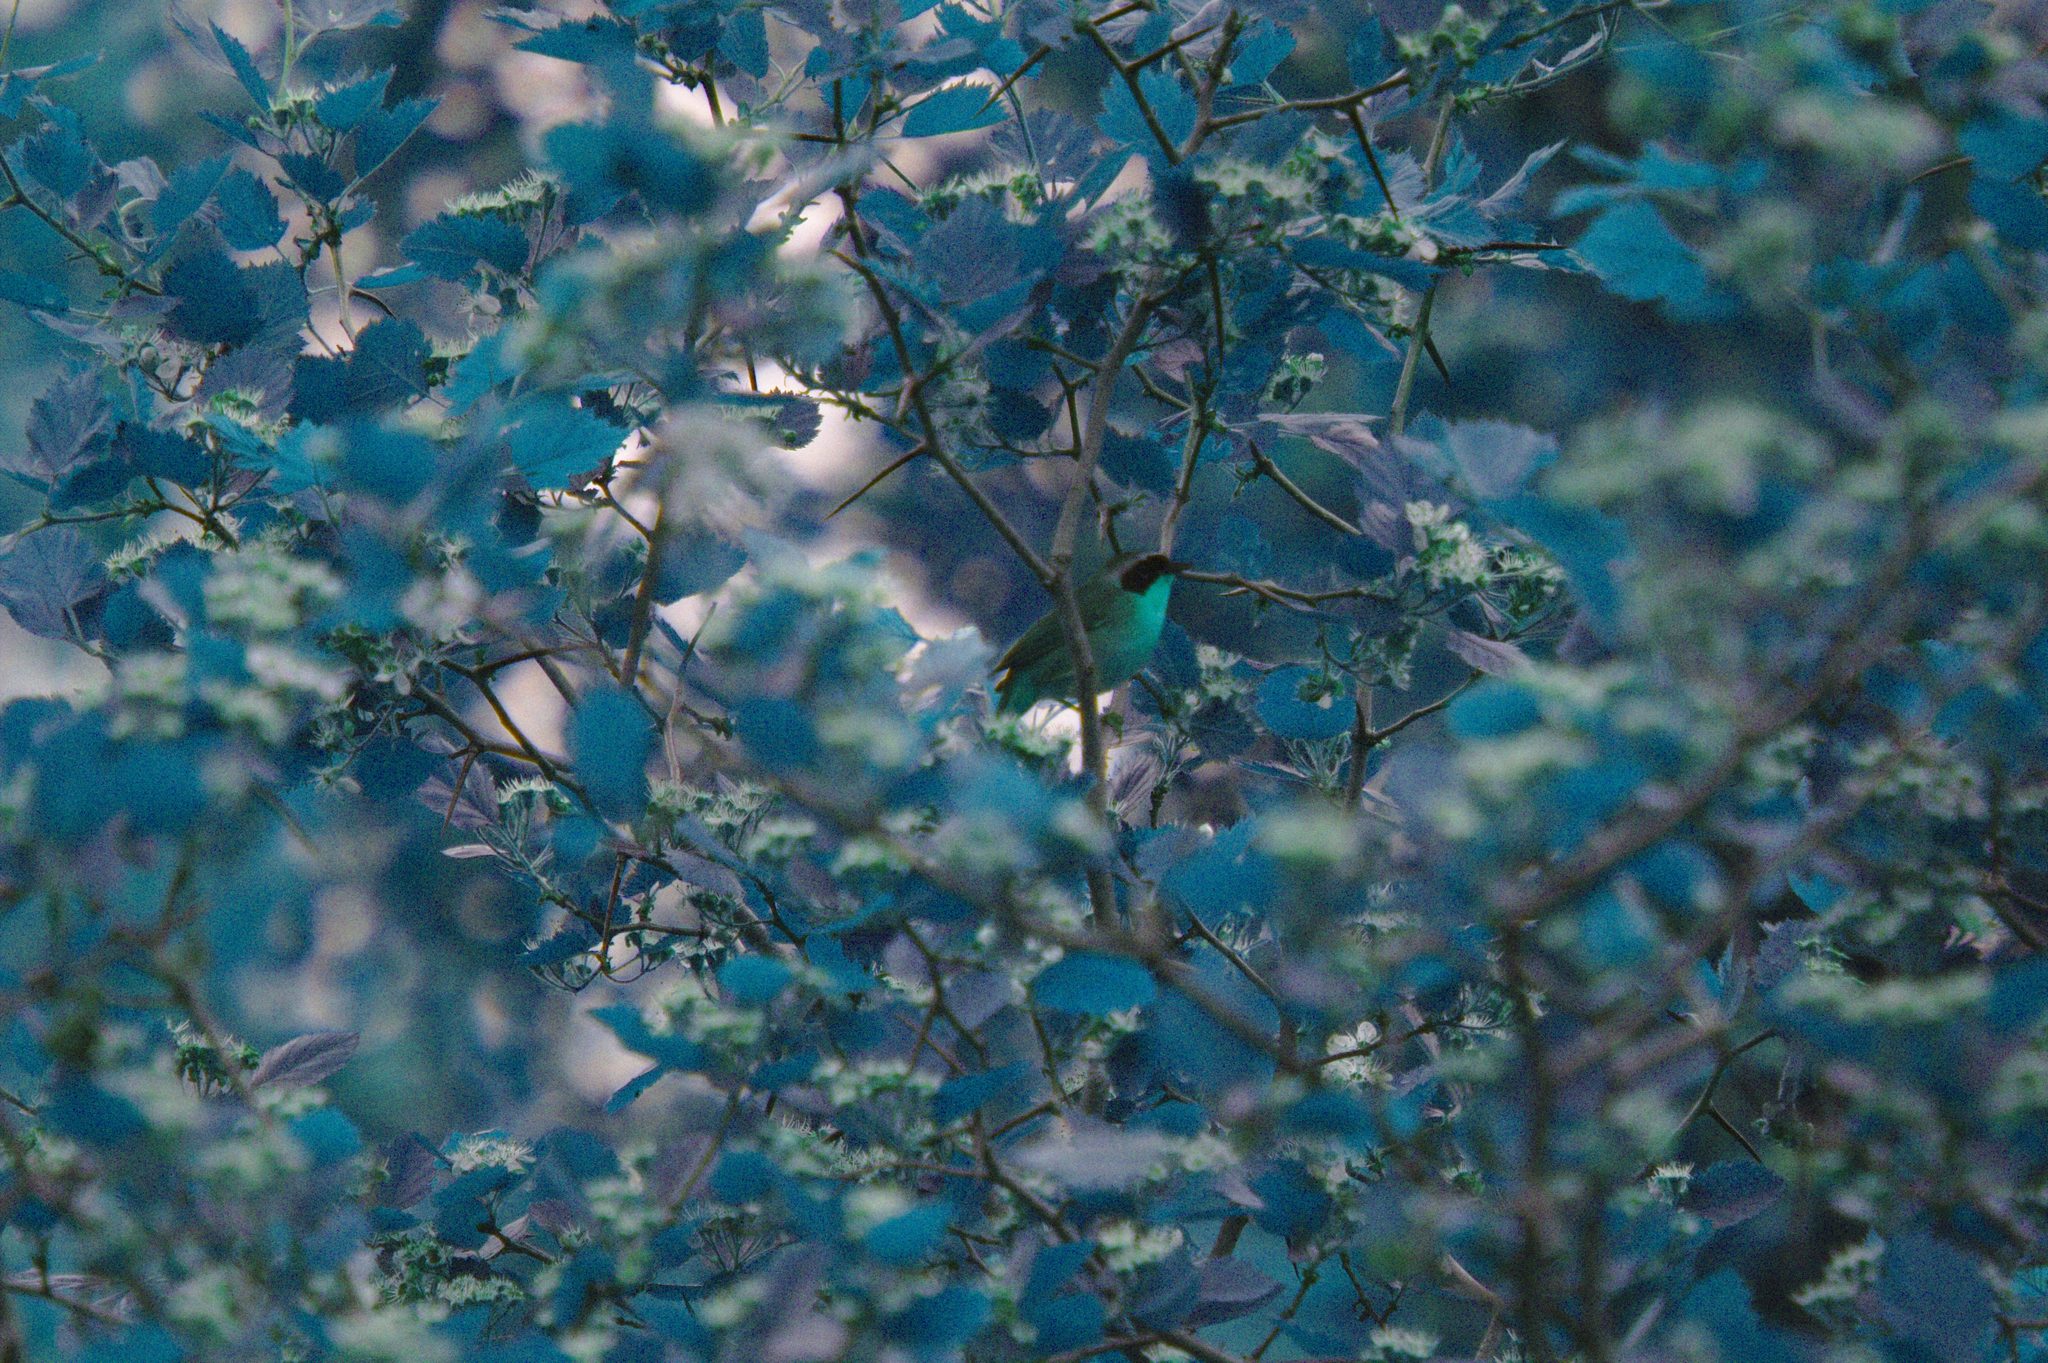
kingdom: Animalia
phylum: Chordata
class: Aves
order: Passeriformes
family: Parulidae
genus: Geothlypis
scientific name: Geothlypis trichas
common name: Common yellowthroat
